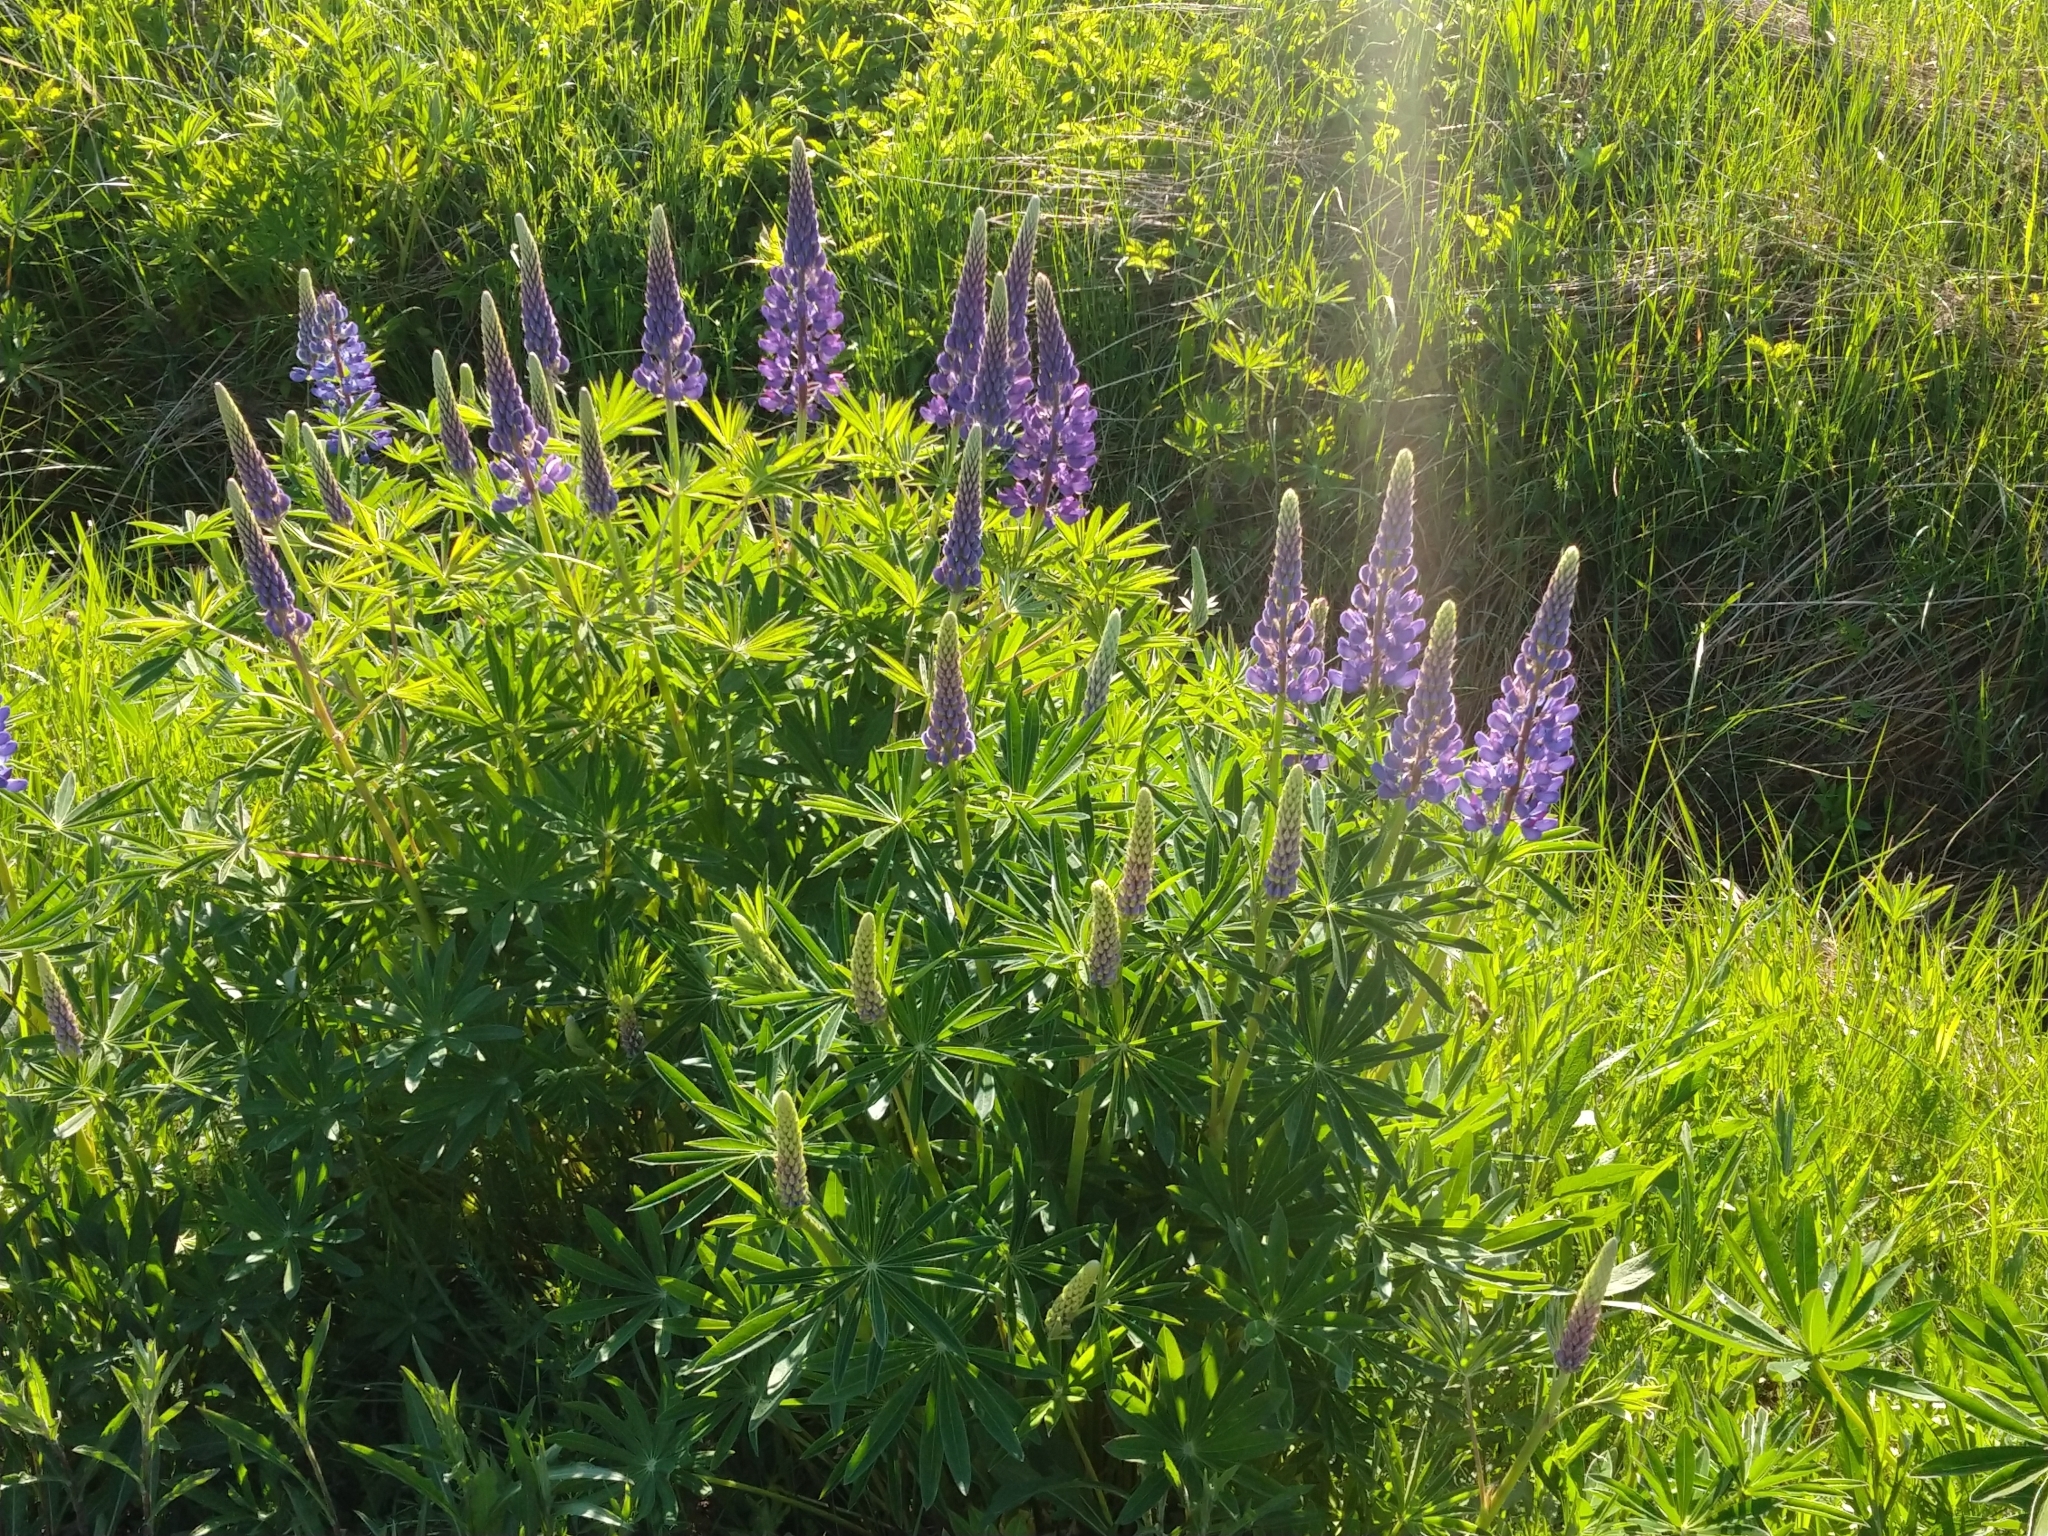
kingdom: Plantae
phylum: Tracheophyta
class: Magnoliopsida
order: Fabales
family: Fabaceae
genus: Lupinus
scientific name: Lupinus polyphyllus
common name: Garden lupin
